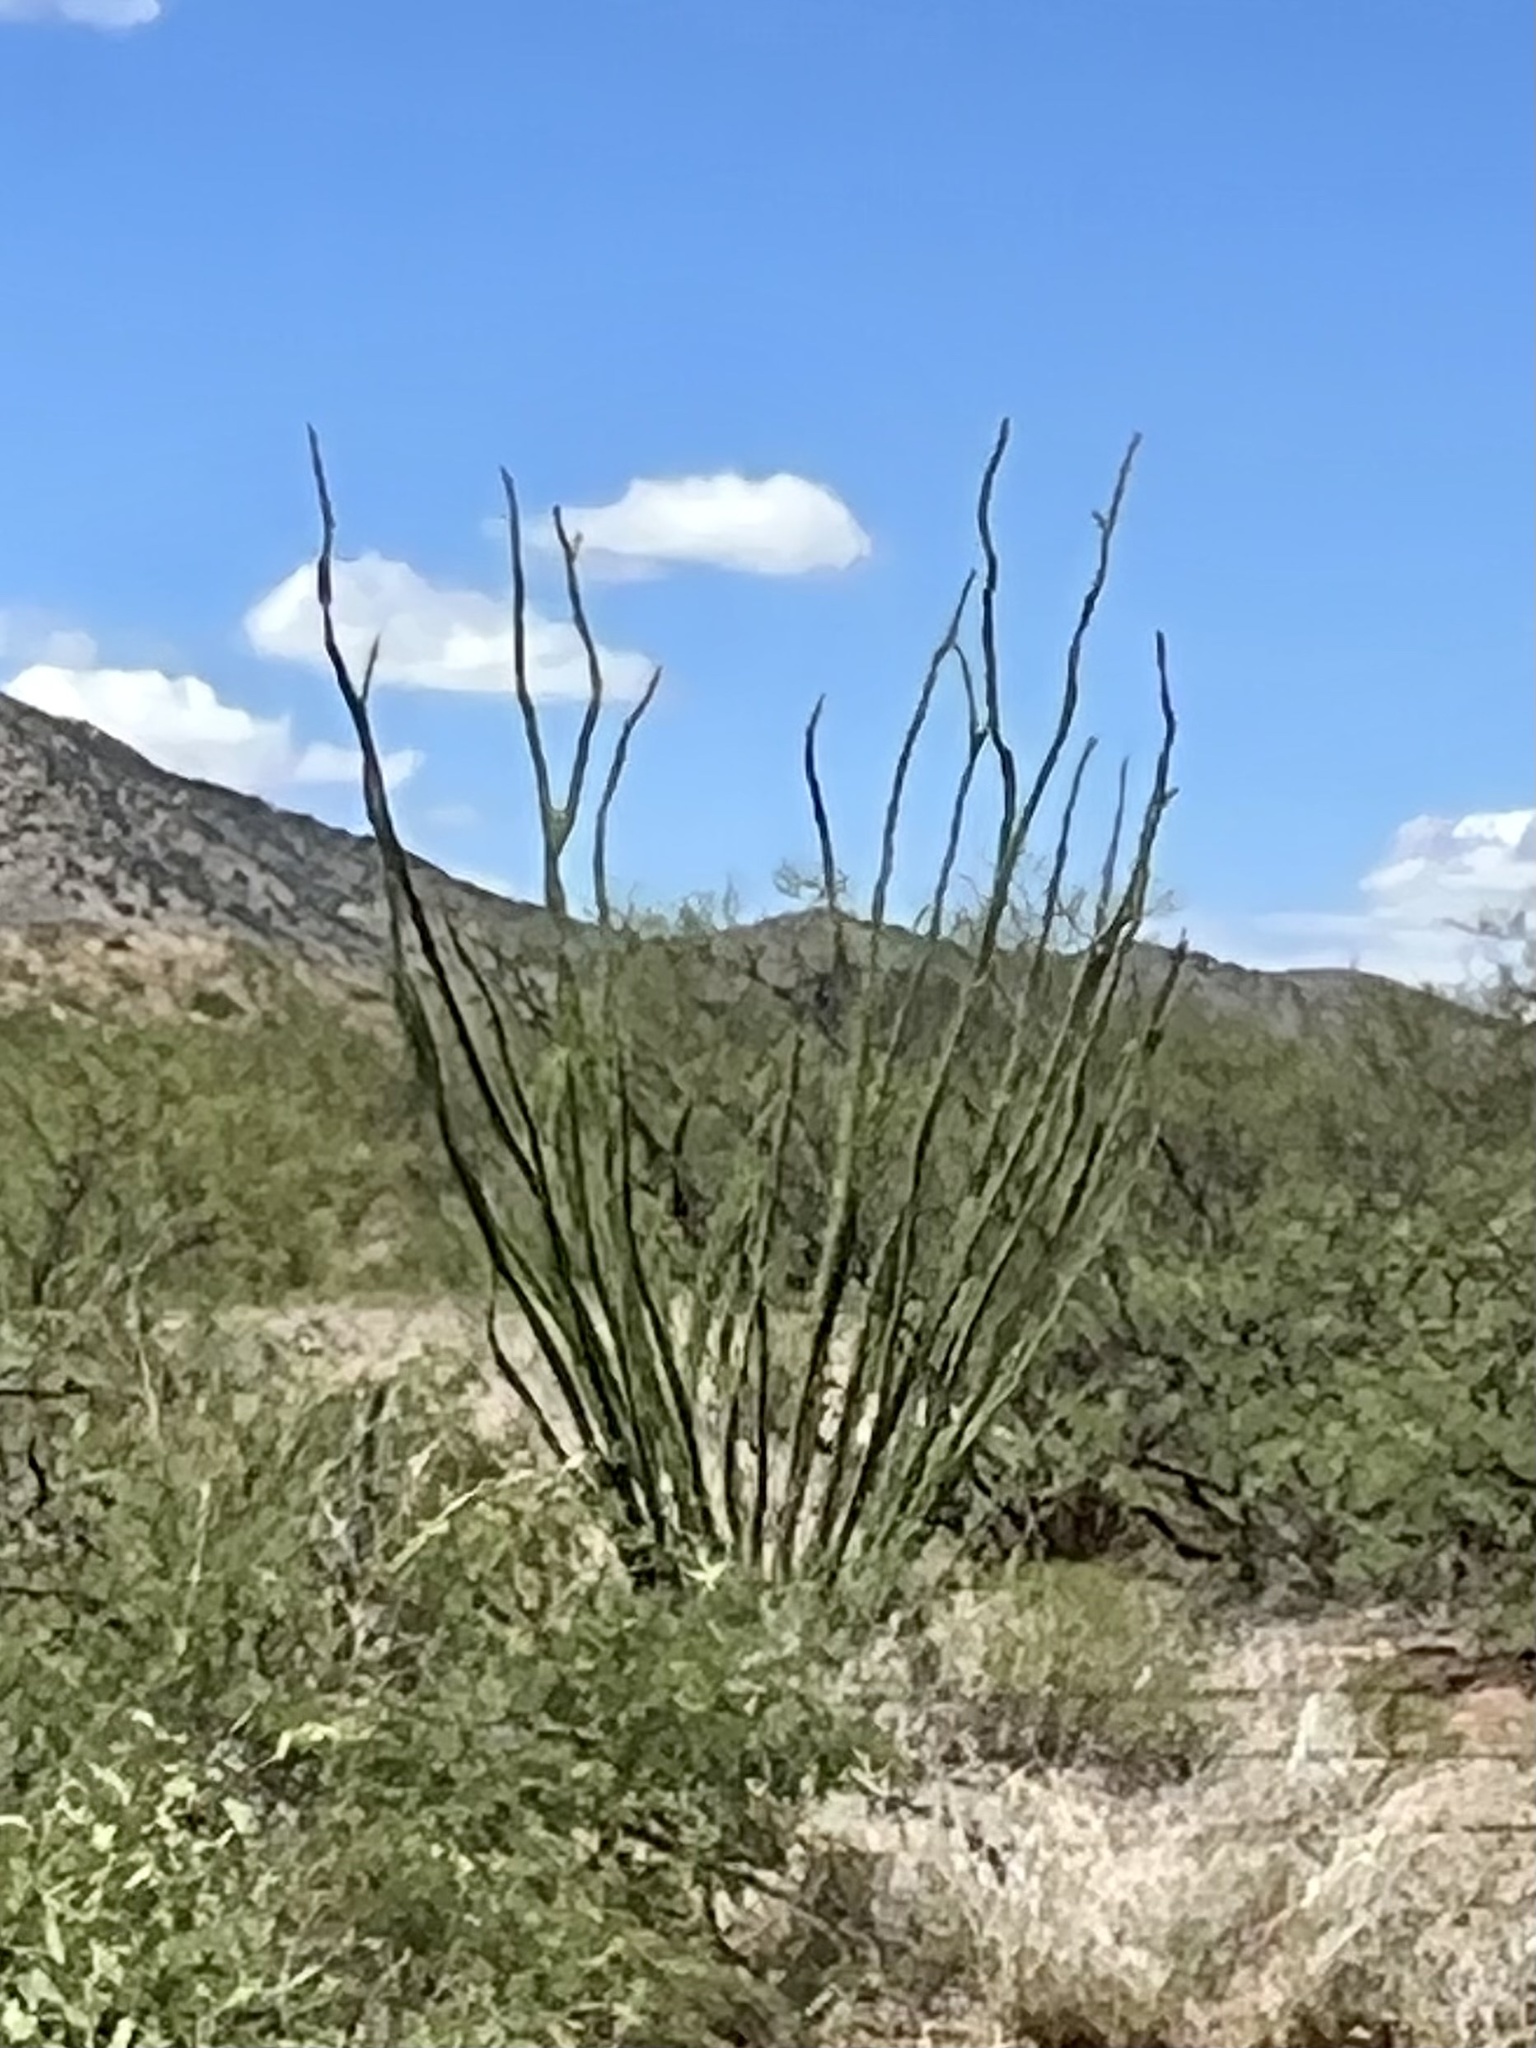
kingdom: Plantae
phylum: Tracheophyta
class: Magnoliopsida
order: Ericales
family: Fouquieriaceae
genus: Fouquieria
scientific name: Fouquieria splendens
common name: Vine-cactus
